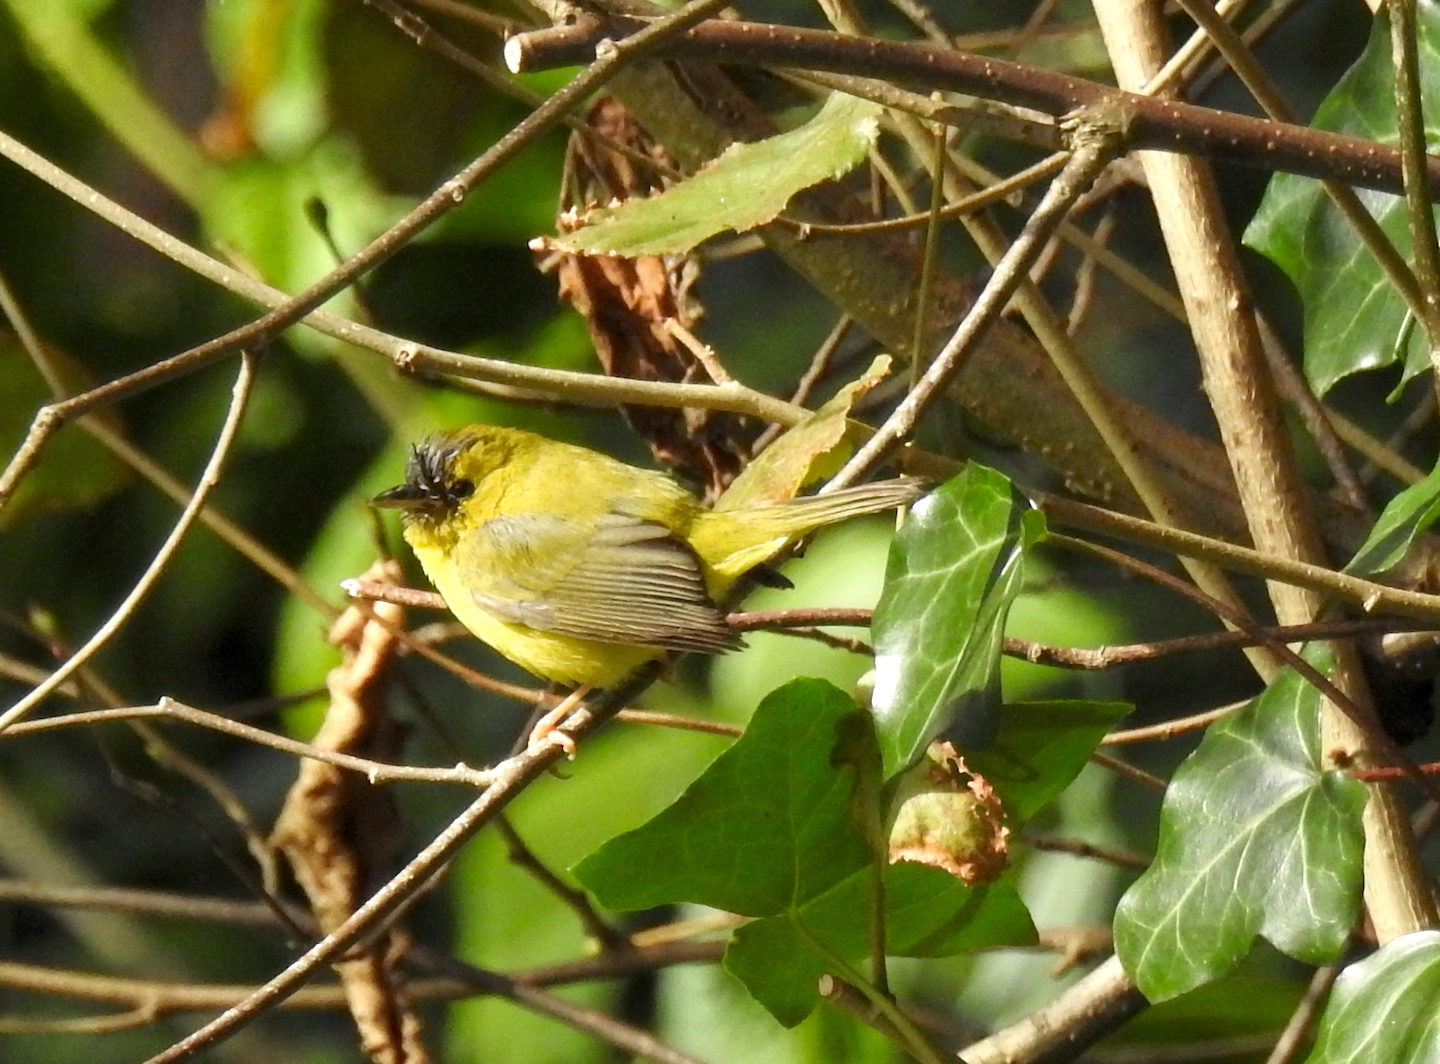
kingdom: Animalia
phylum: Chordata
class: Aves
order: Passeriformes
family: Parulidae
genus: Cardellina
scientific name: Cardellina pusilla
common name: Wilson's warbler
